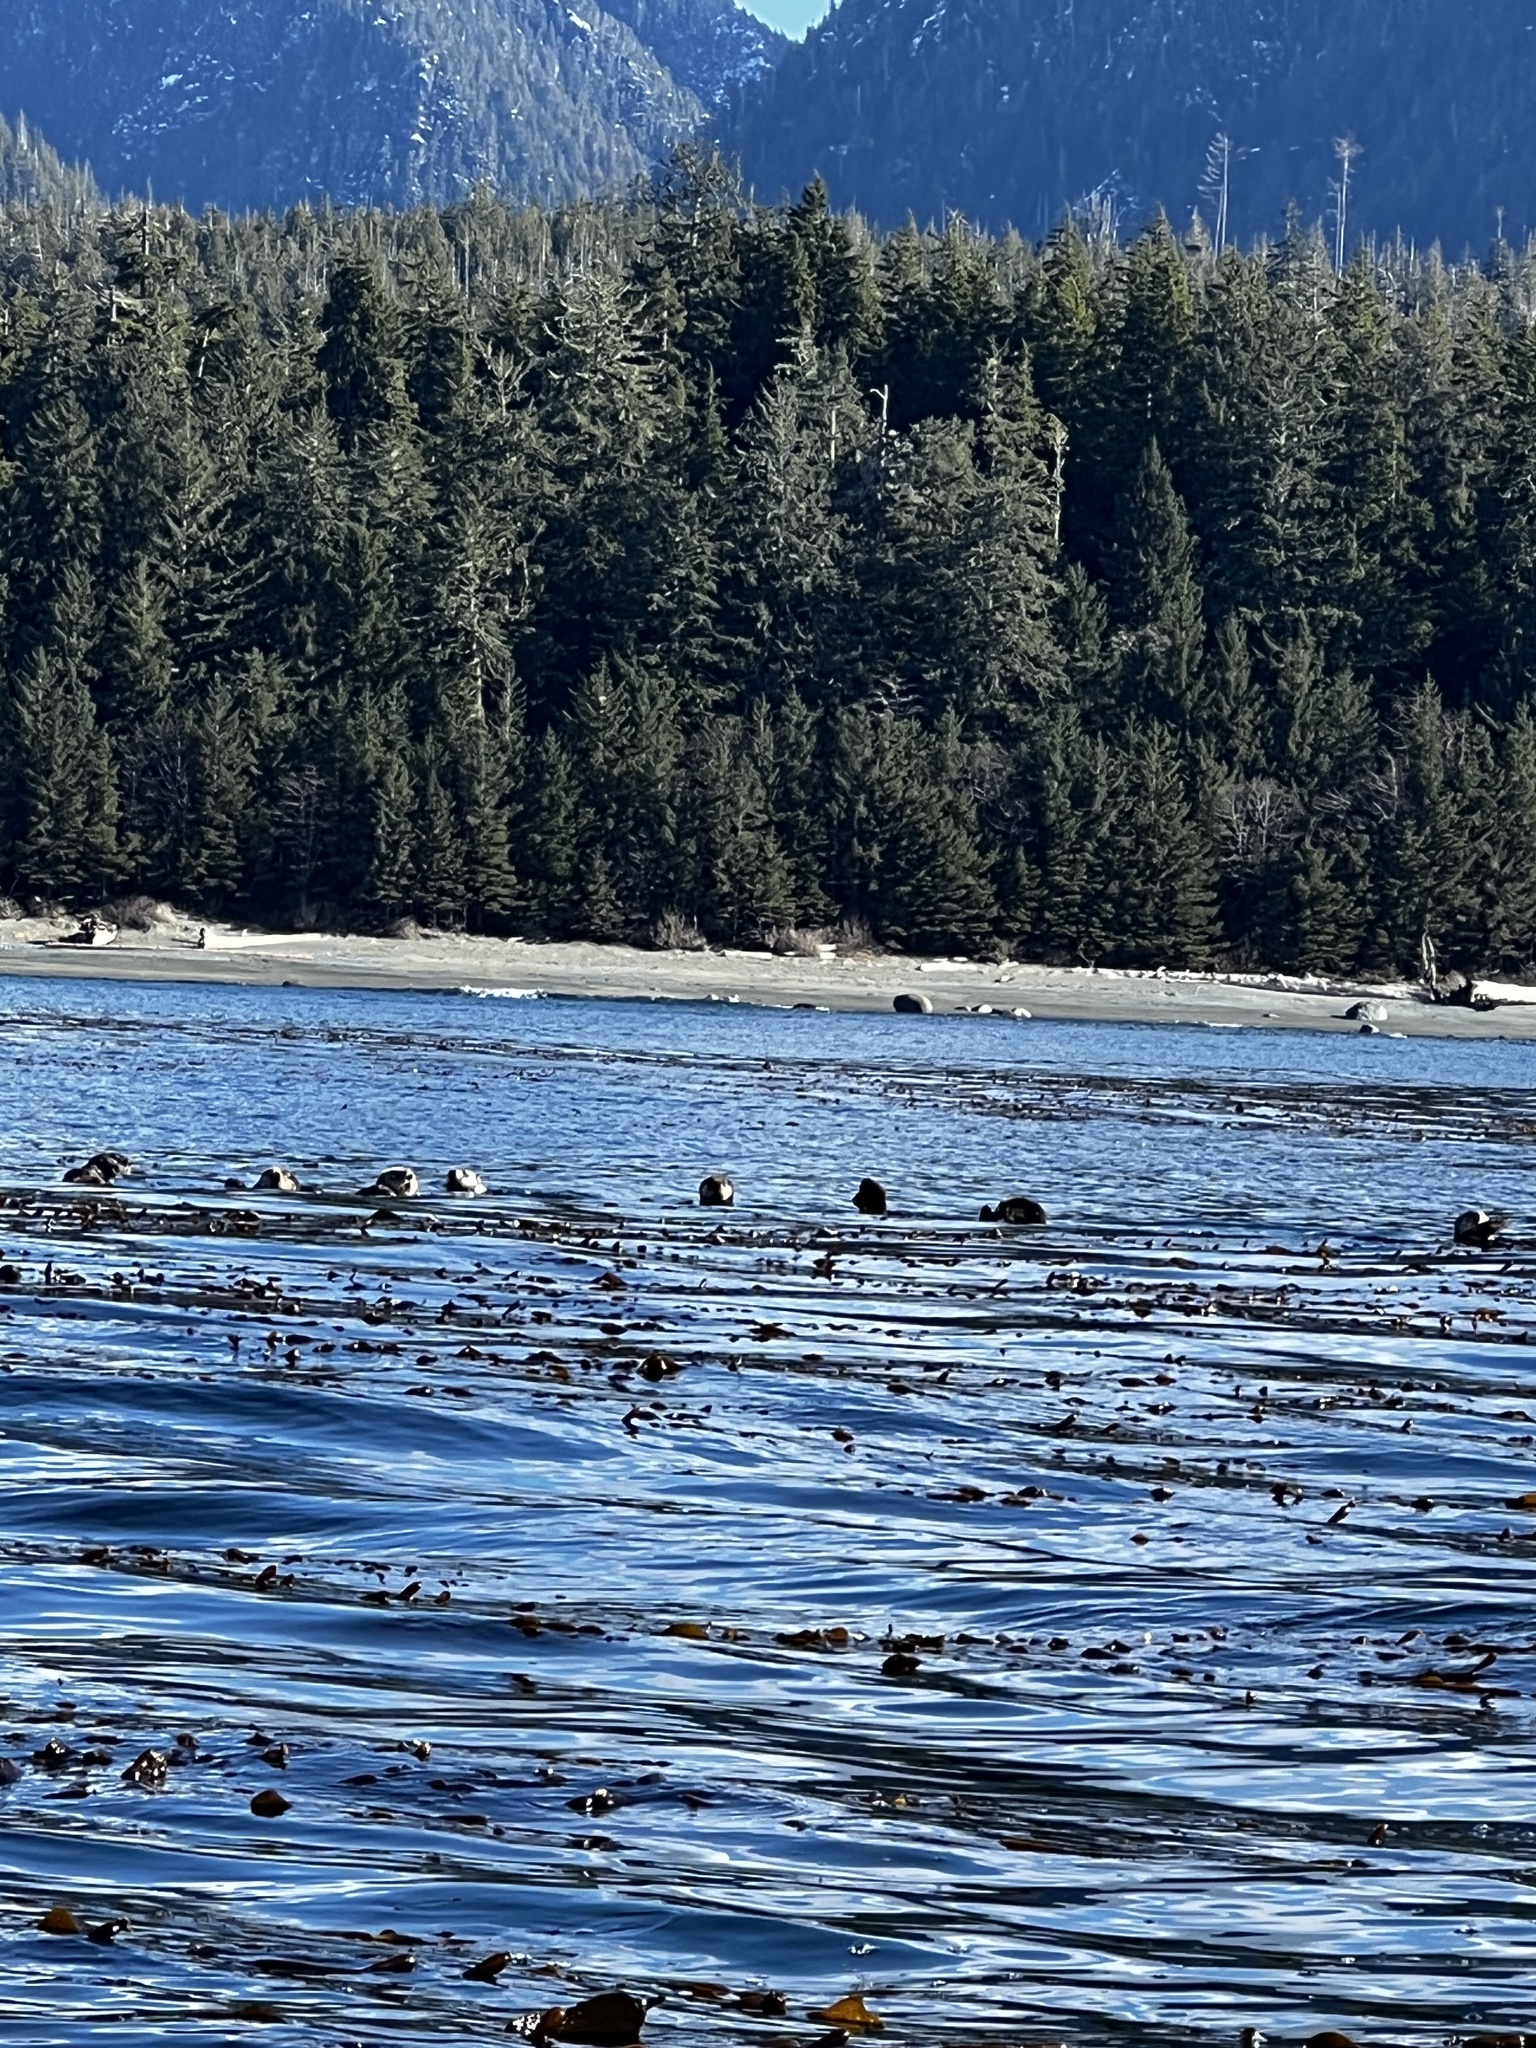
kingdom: Animalia
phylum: Chordata
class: Mammalia
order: Carnivora
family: Mustelidae
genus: Enhydra
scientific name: Enhydra lutris
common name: Sea otter
